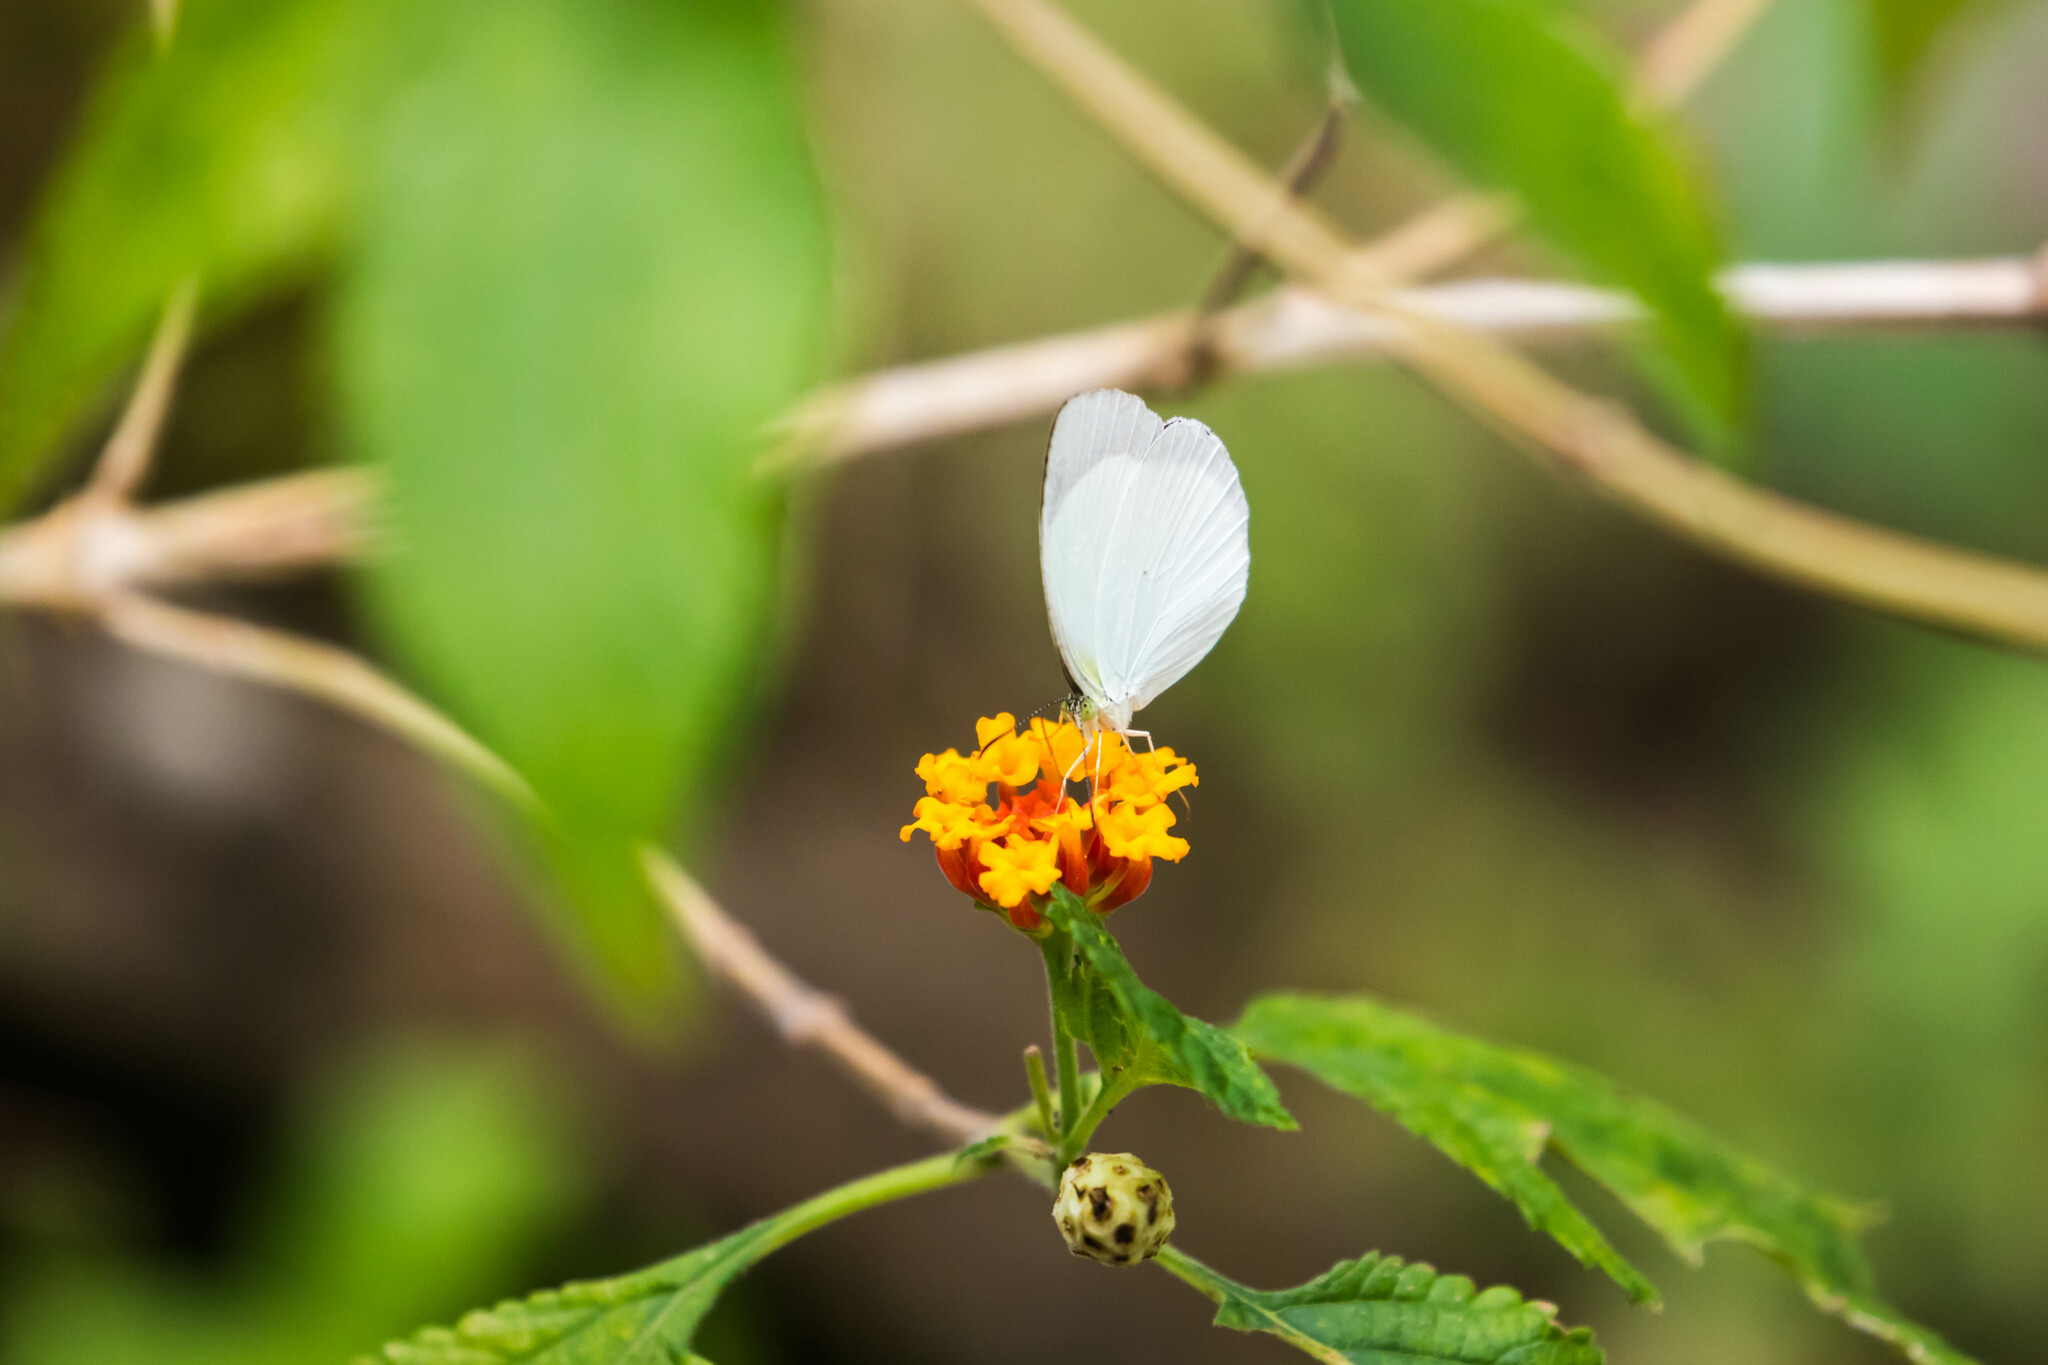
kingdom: Animalia
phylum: Arthropoda
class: Insecta
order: Lepidoptera
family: Pieridae
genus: Abaeis
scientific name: Abaeis albula
